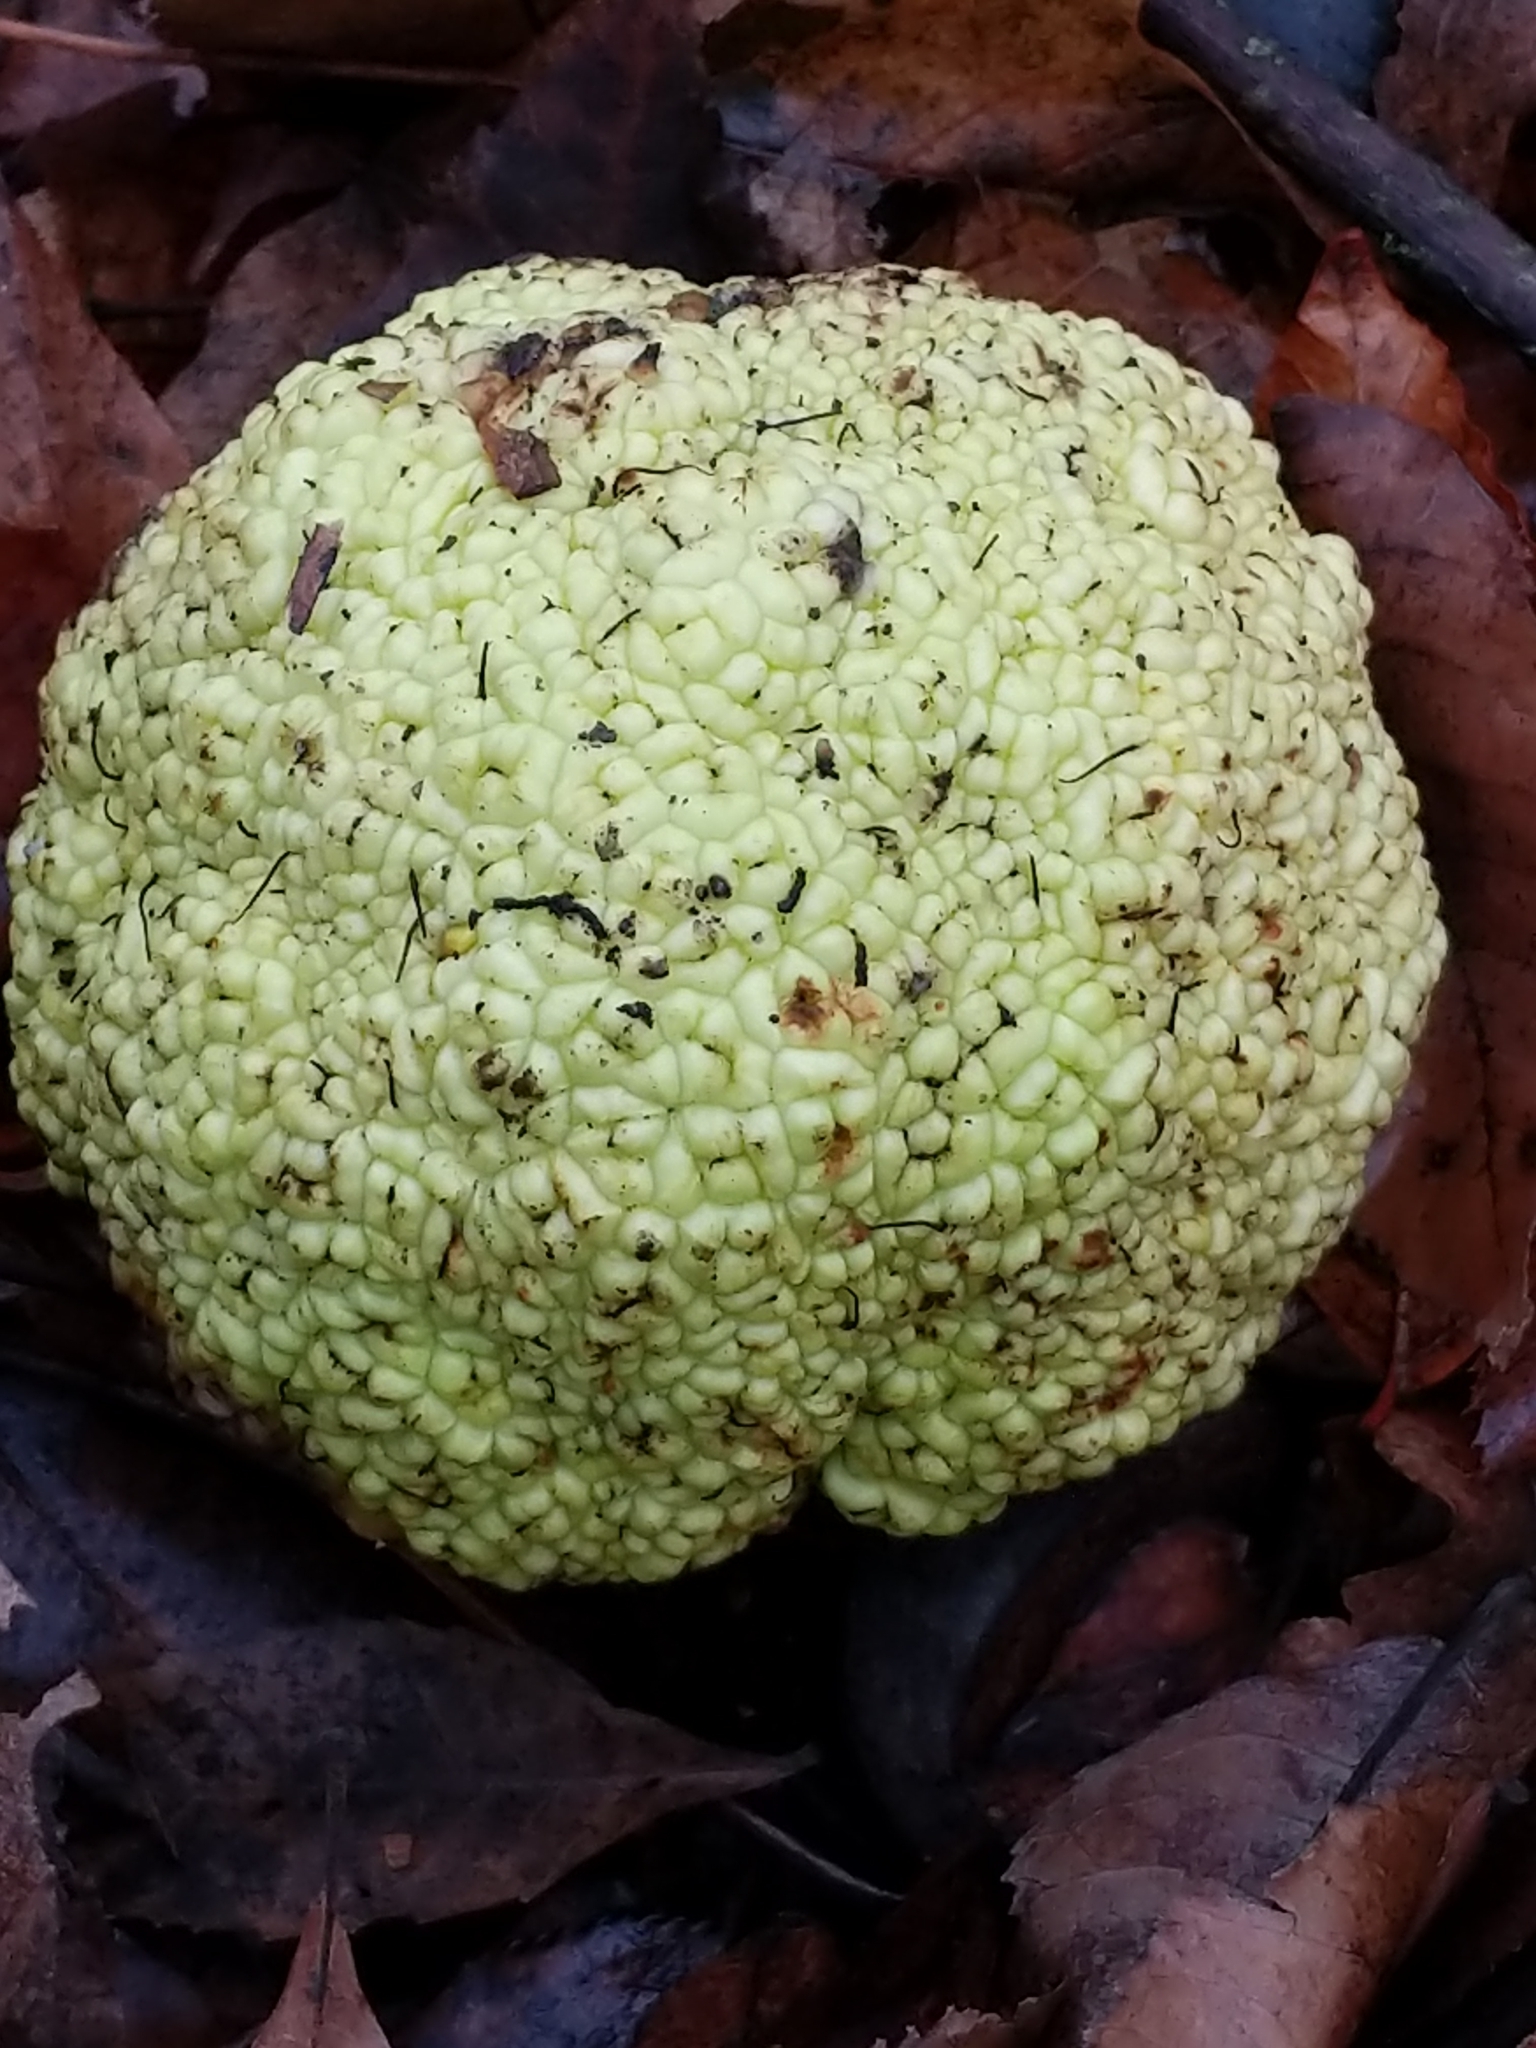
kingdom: Plantae
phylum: Tracheophyta
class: Magnoliopsida
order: Rosales
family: Moraceae
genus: Maclura
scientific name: Maclura pomifera
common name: Osage-orange
